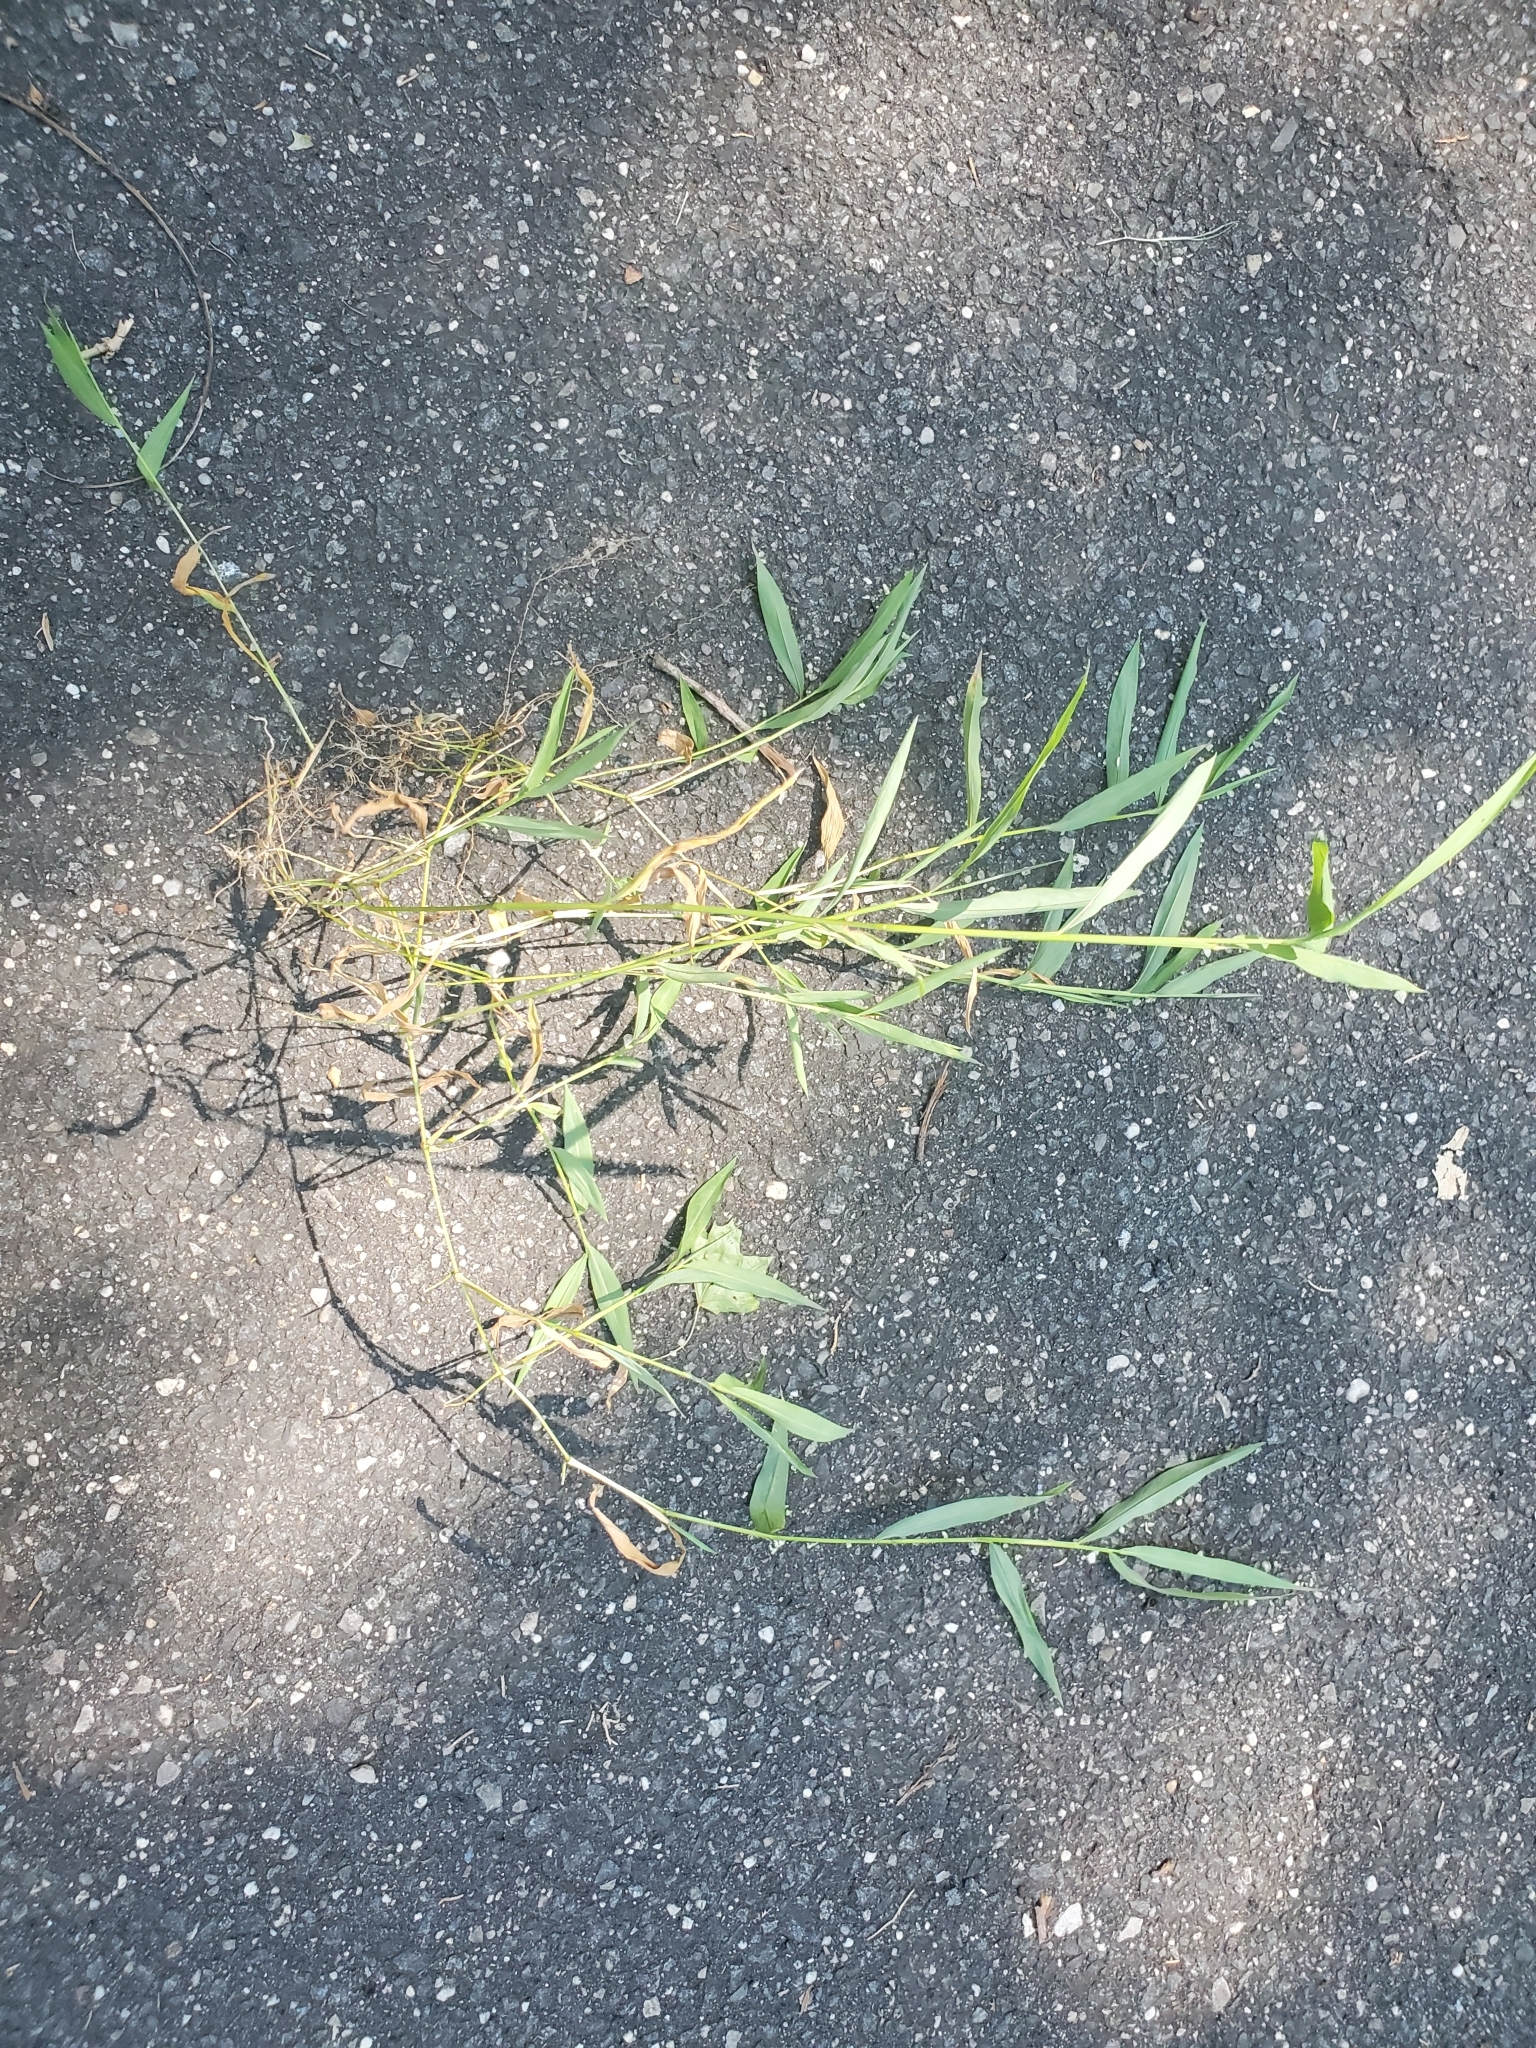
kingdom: Plantae
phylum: Tracheophyta
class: Liliopsida
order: Poales
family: Poaceae
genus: Microstegium
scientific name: Microstegium vimineum
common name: Japanese stiltgrass
